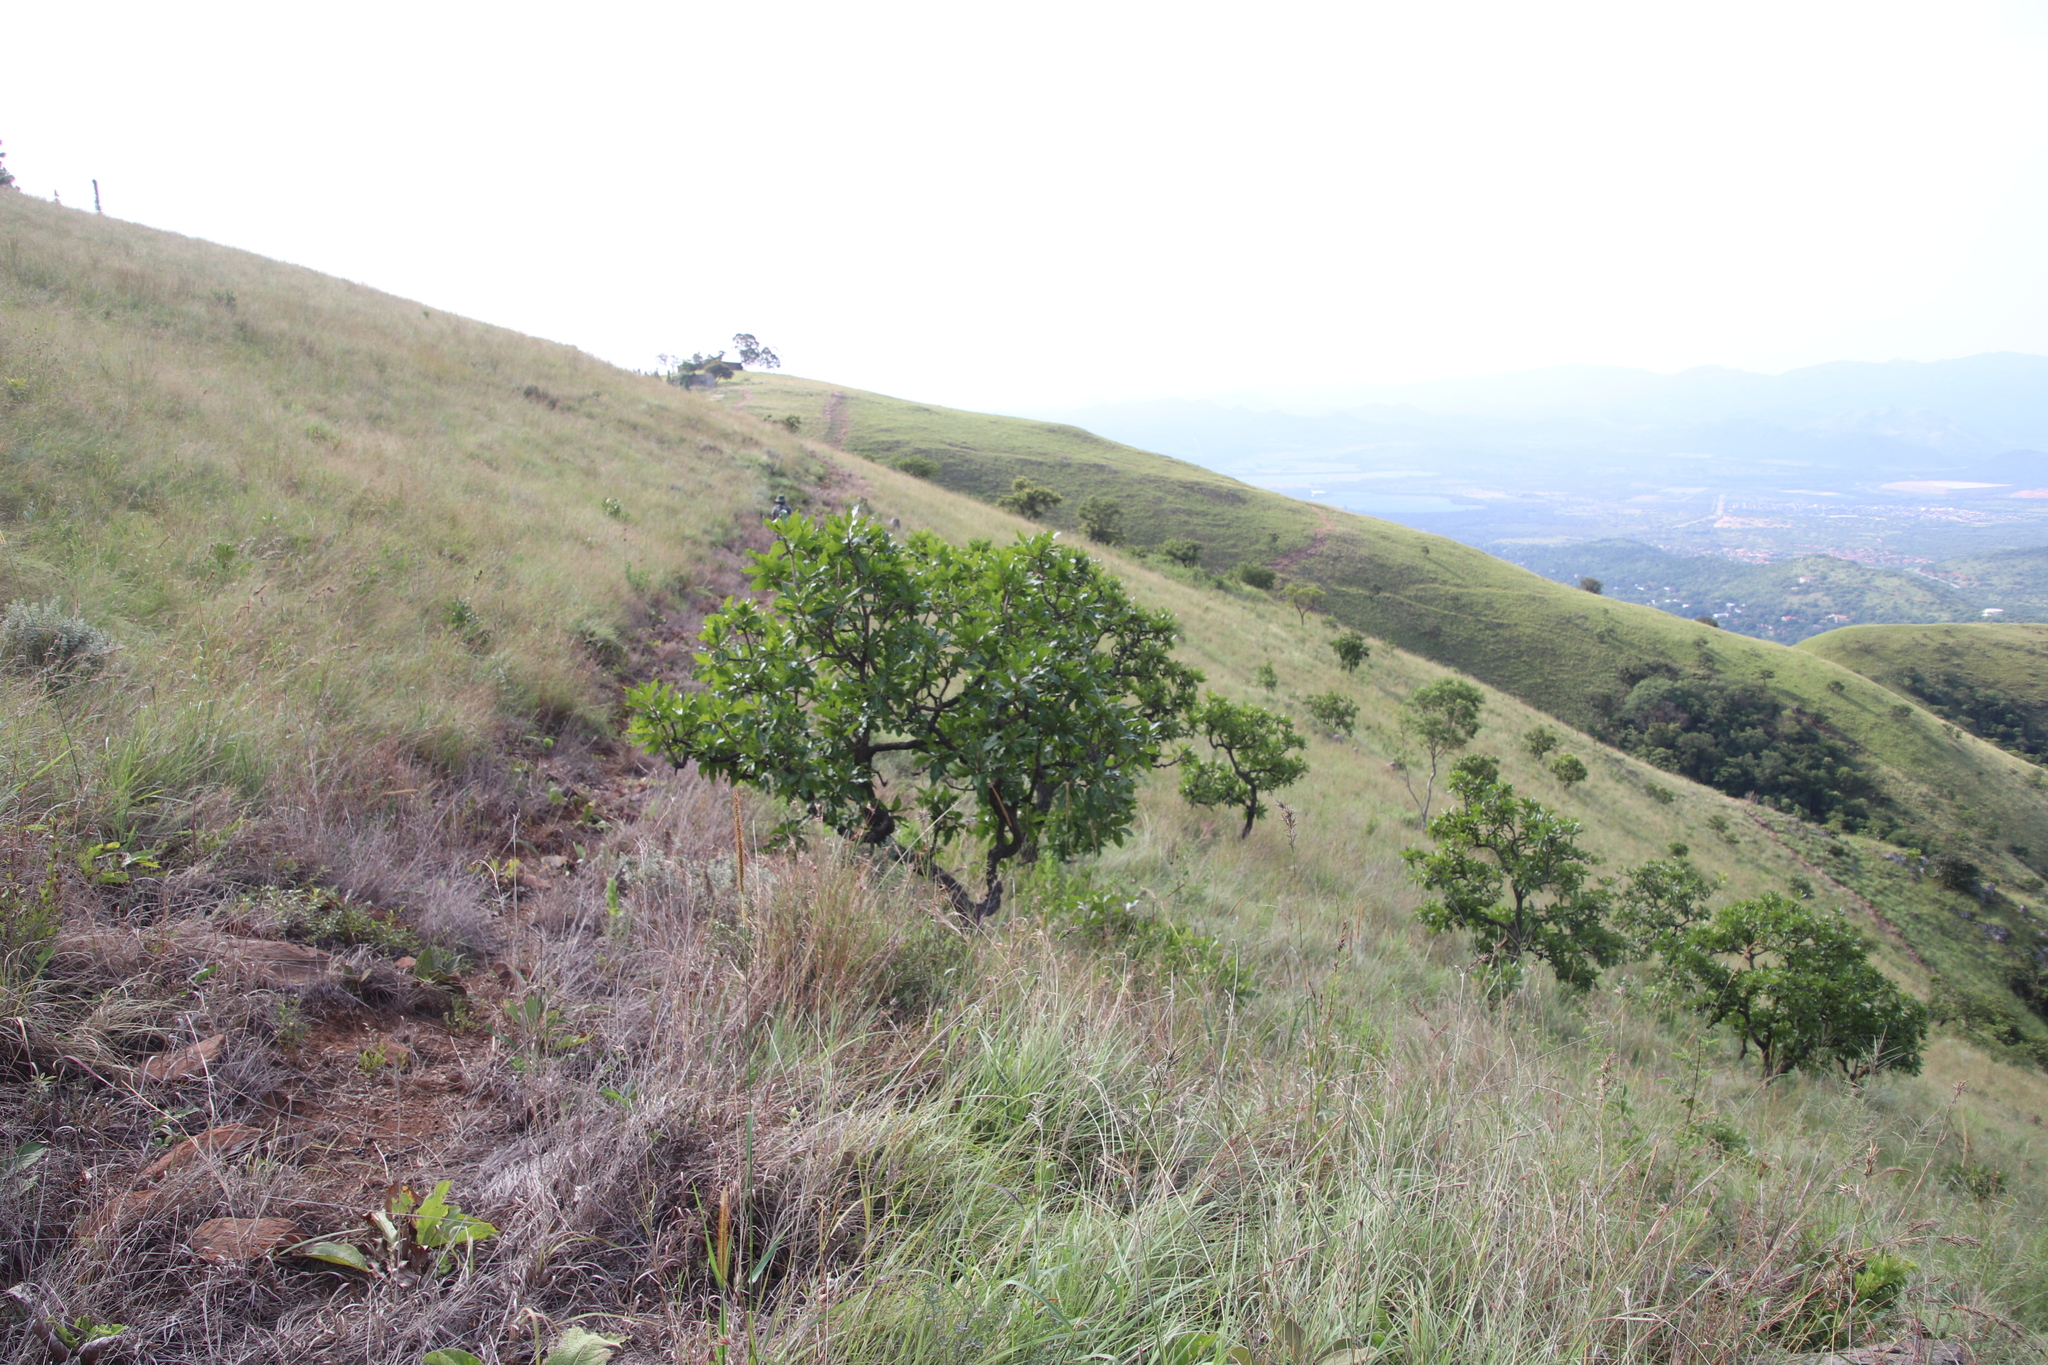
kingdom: Plantae
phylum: Tracheophyta
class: Magnoliopsida
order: Proteales
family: Proteaceae
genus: Faurea
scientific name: Faurea rochetiana
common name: Broad-leaved beech
